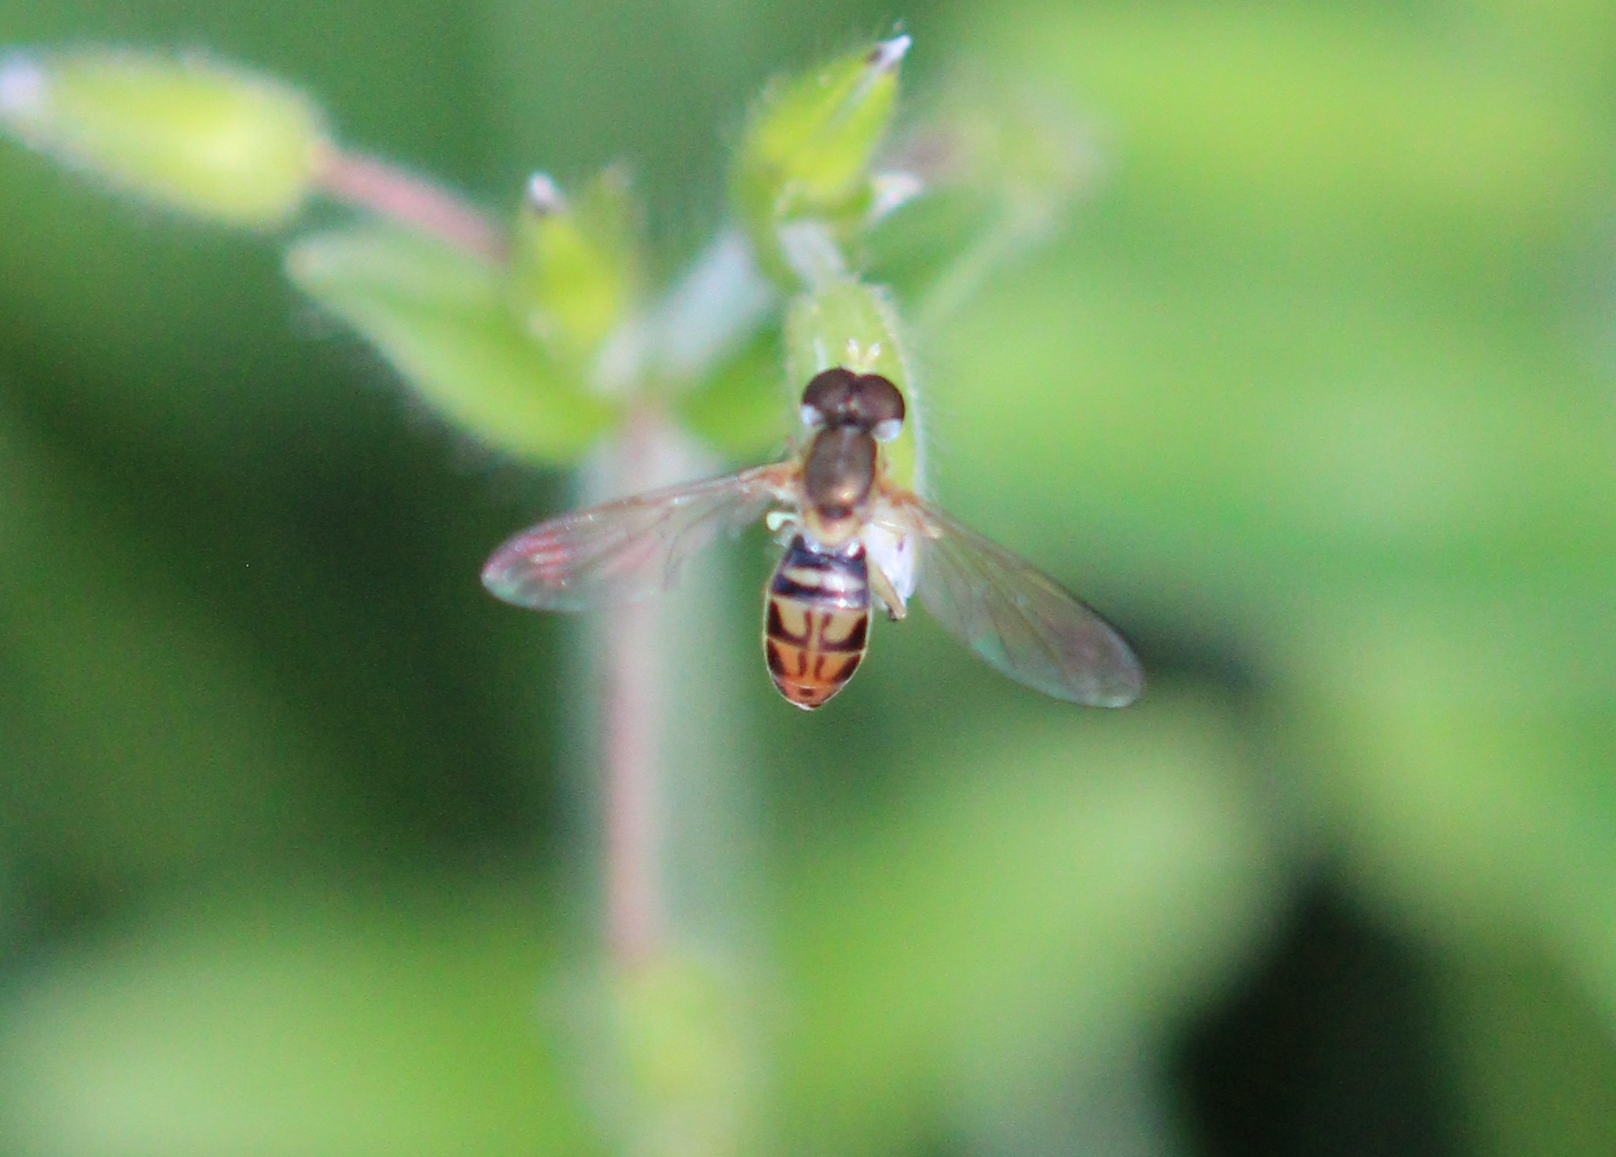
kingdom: Animalia
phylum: Arthropoda
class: Insecta
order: Diptera
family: Syrphidae
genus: Toxomerus
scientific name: Toxomerus marginatus
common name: Syrphid fly
